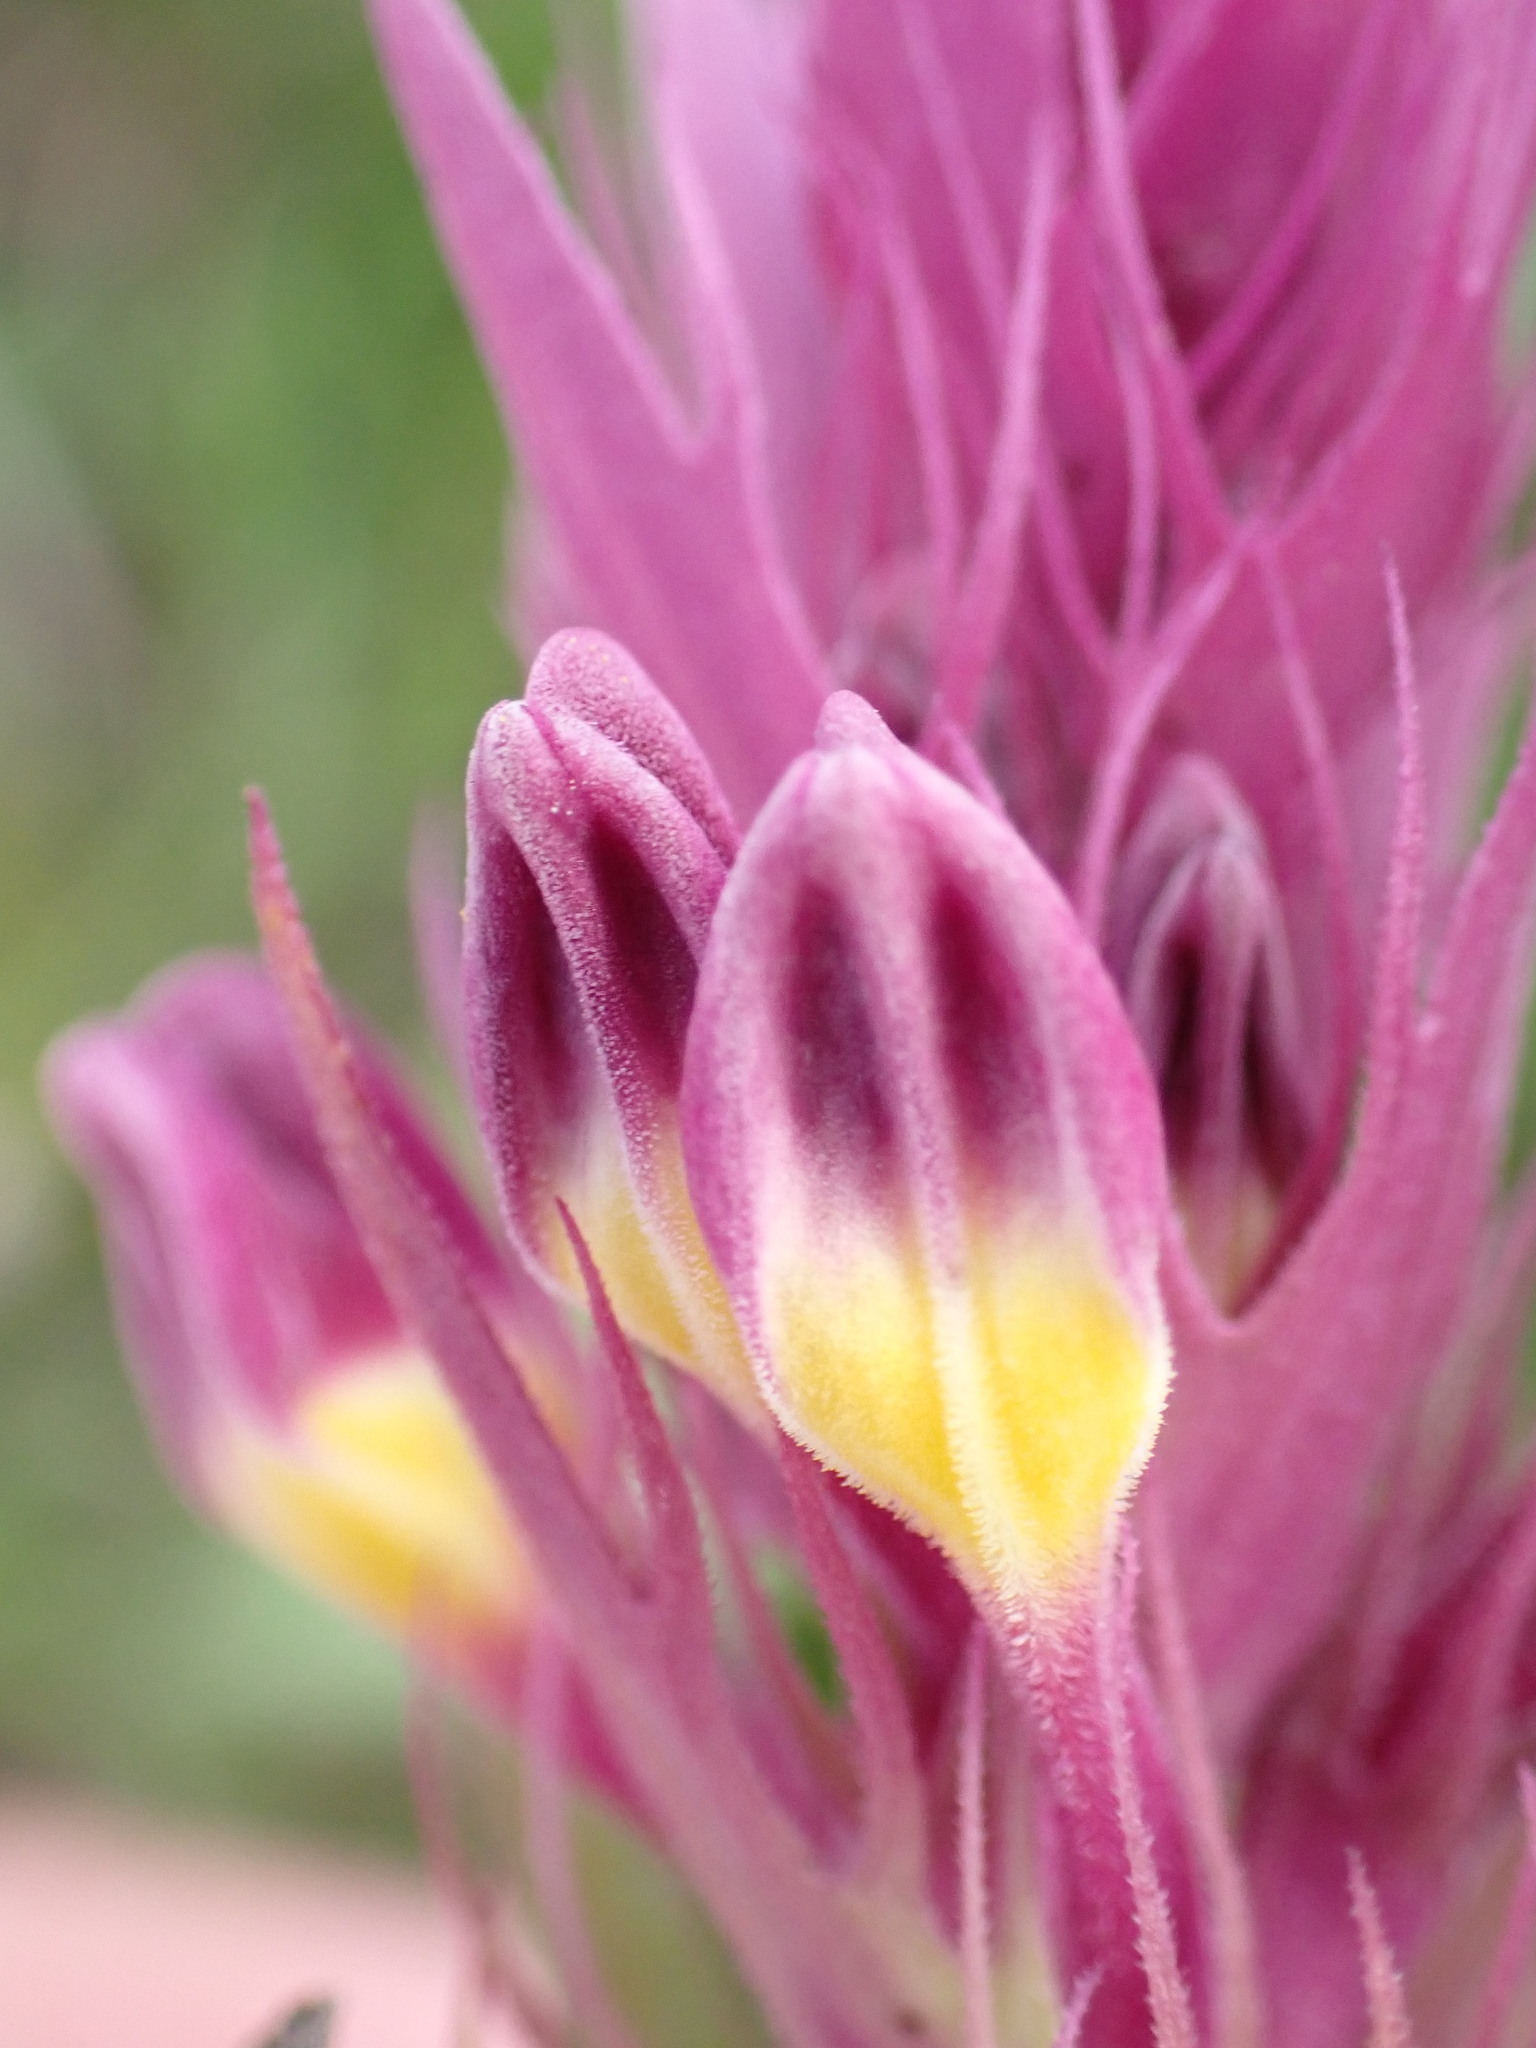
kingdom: Plantae
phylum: Tracheophyta
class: Magnoliopsida
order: Lamiales
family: Orobanchaceae
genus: Melampyrum
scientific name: Melampyrum arvense
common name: Field cow-wheat
